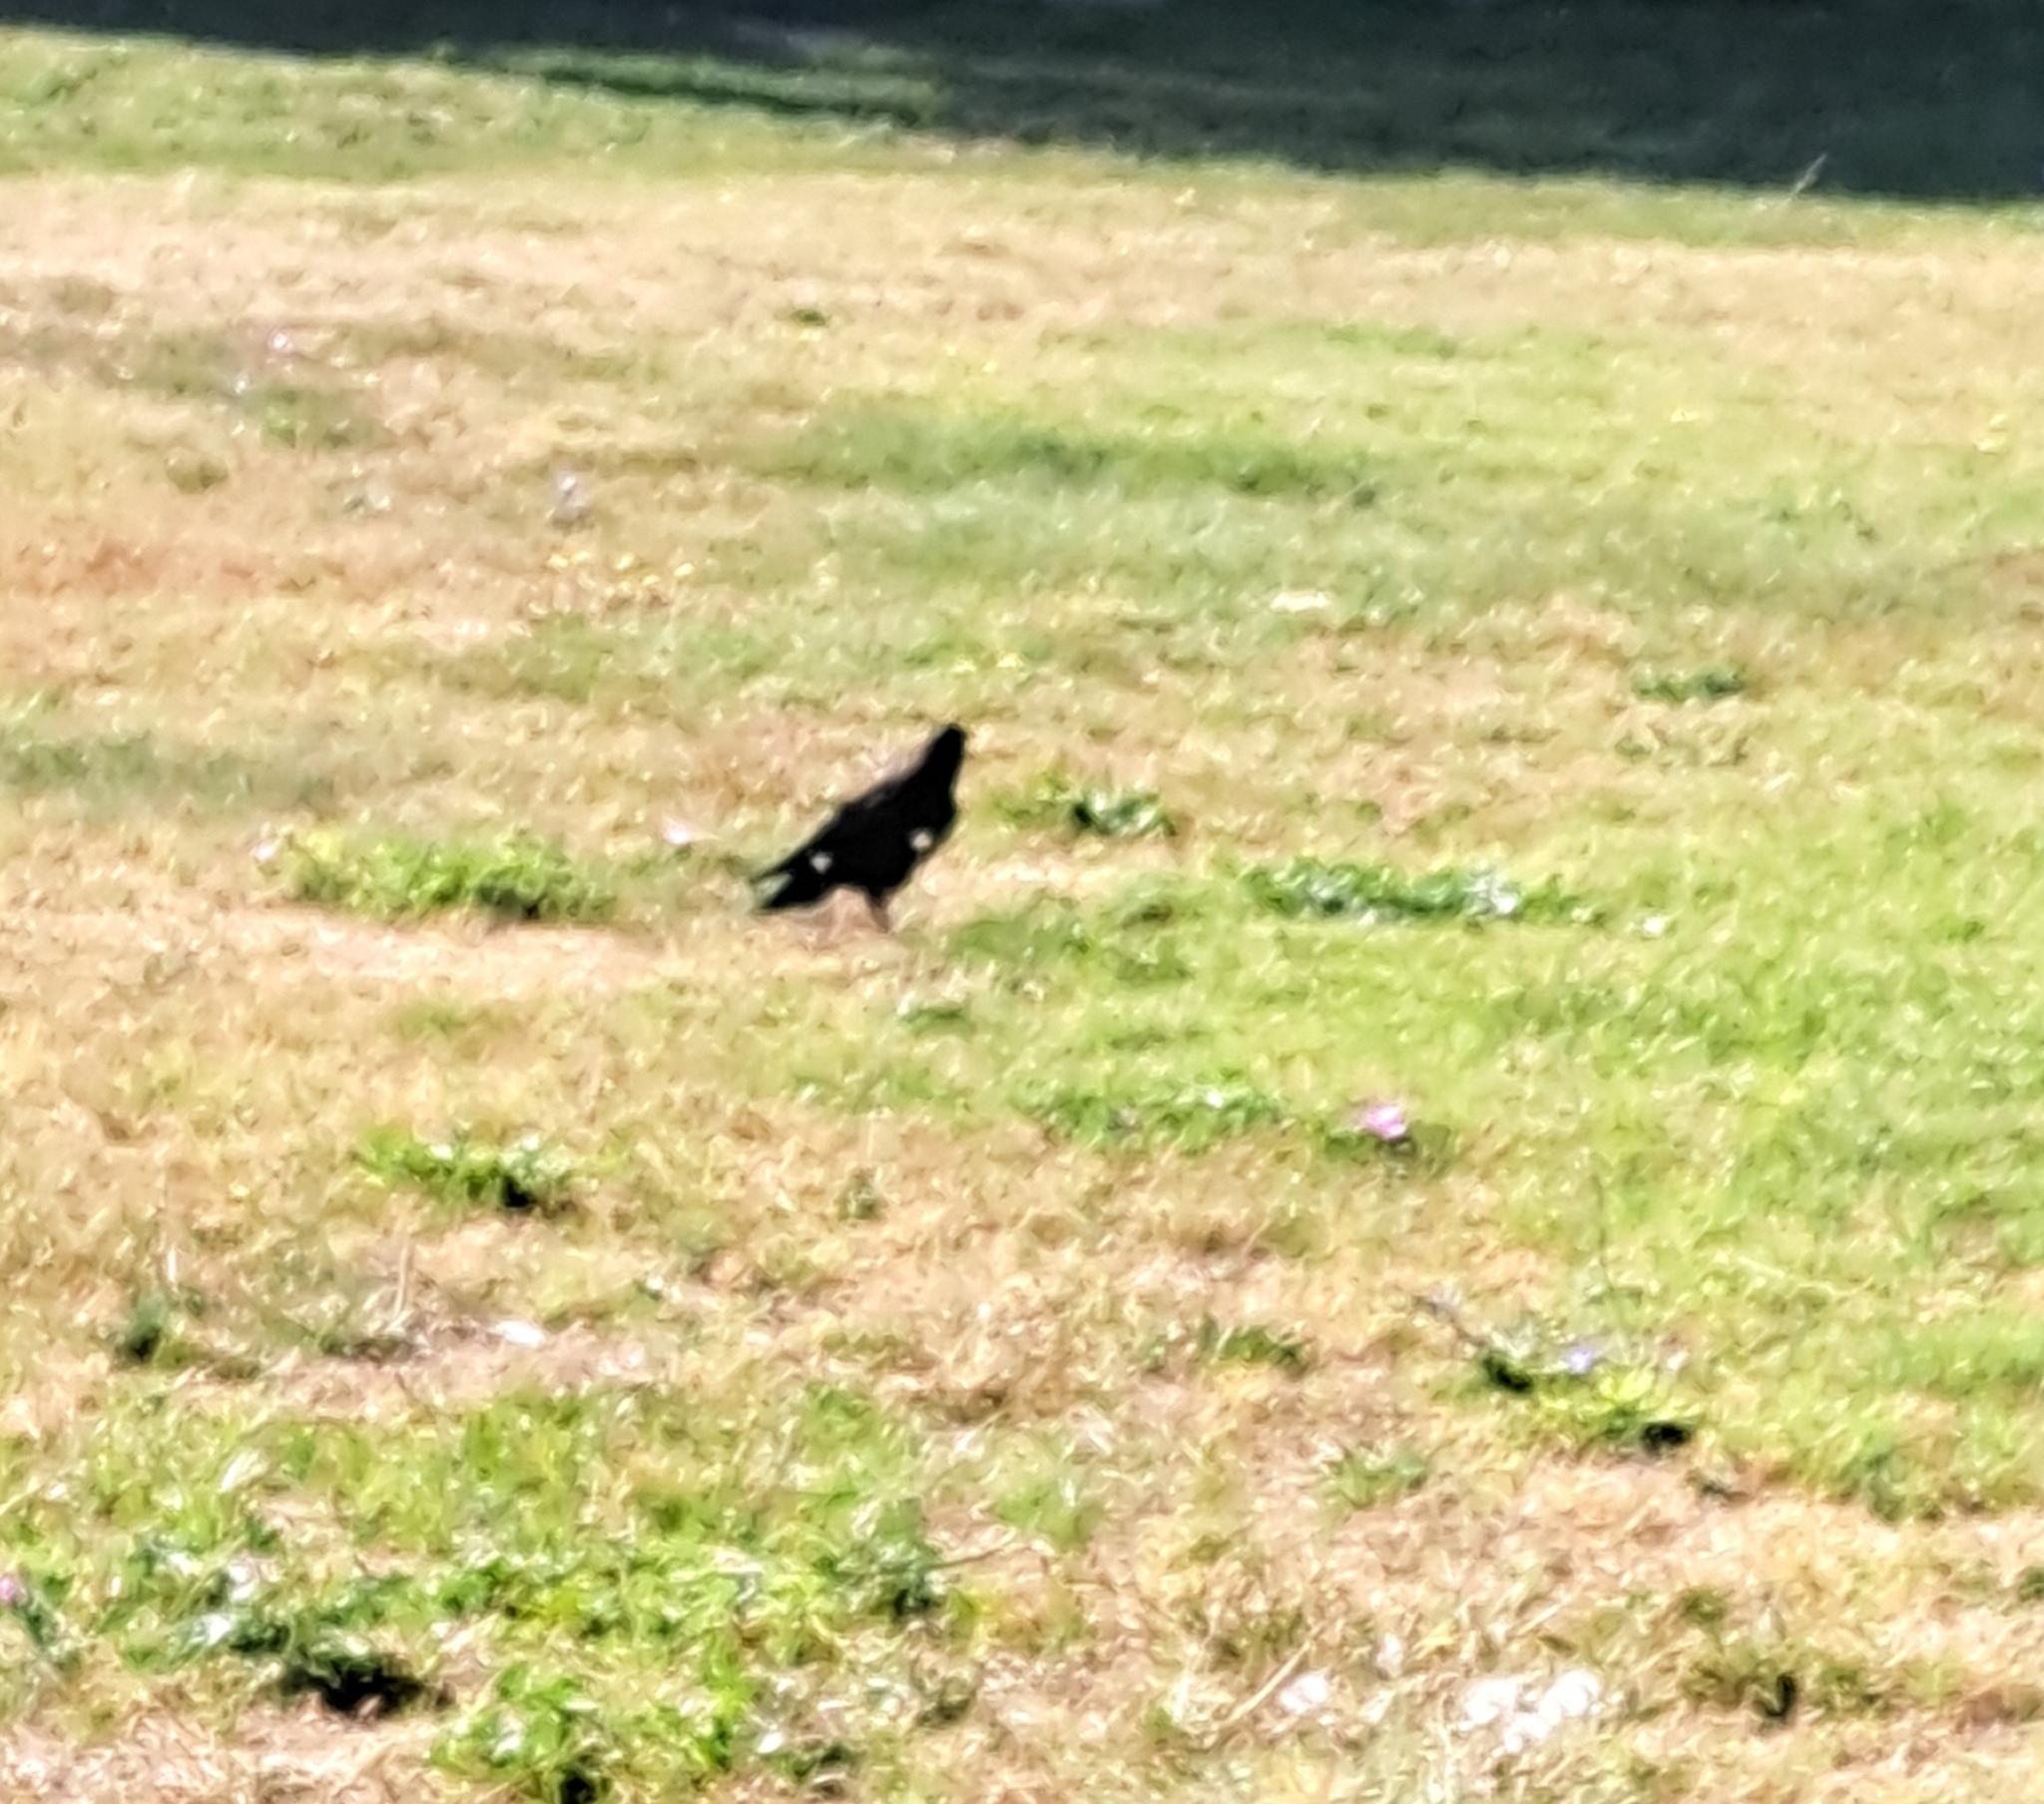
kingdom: Animalia
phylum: Chordata
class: Aves
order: Passeriformes
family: Corvidae
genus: Corvus
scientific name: Corvus frugilegus
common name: Rook
